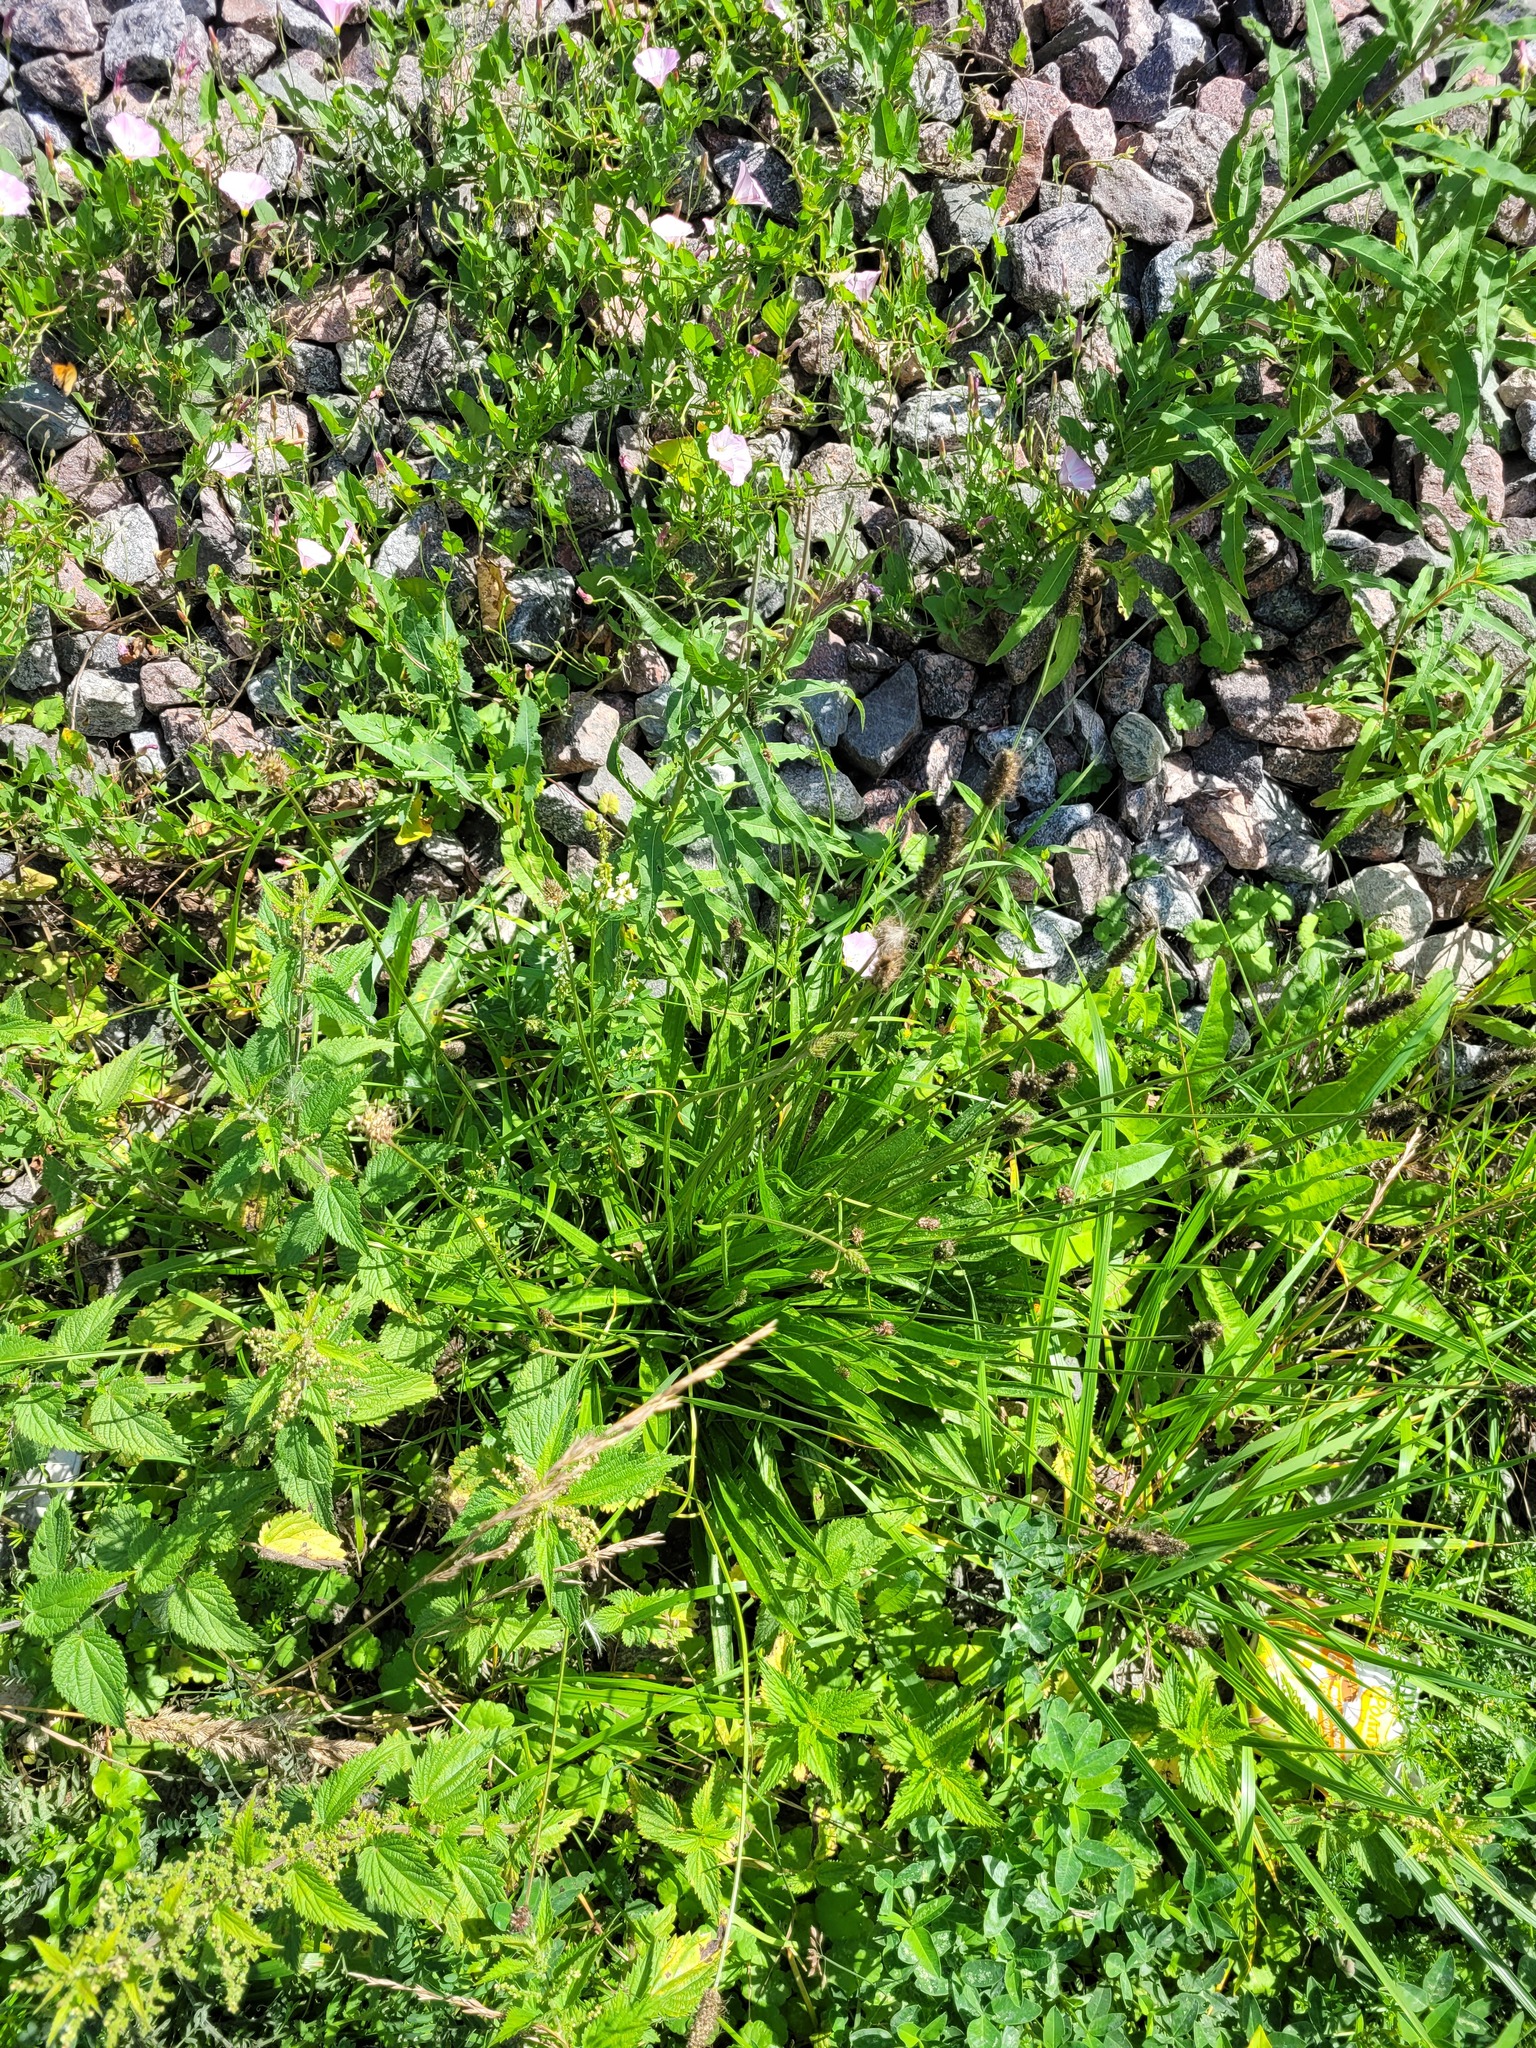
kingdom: Plantae
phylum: Tracheophyta
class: Magnoliopsida
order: Lamiales
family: Plantaginaceae
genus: Plantago
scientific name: Plantago lanceolata
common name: Ribwort plantain
